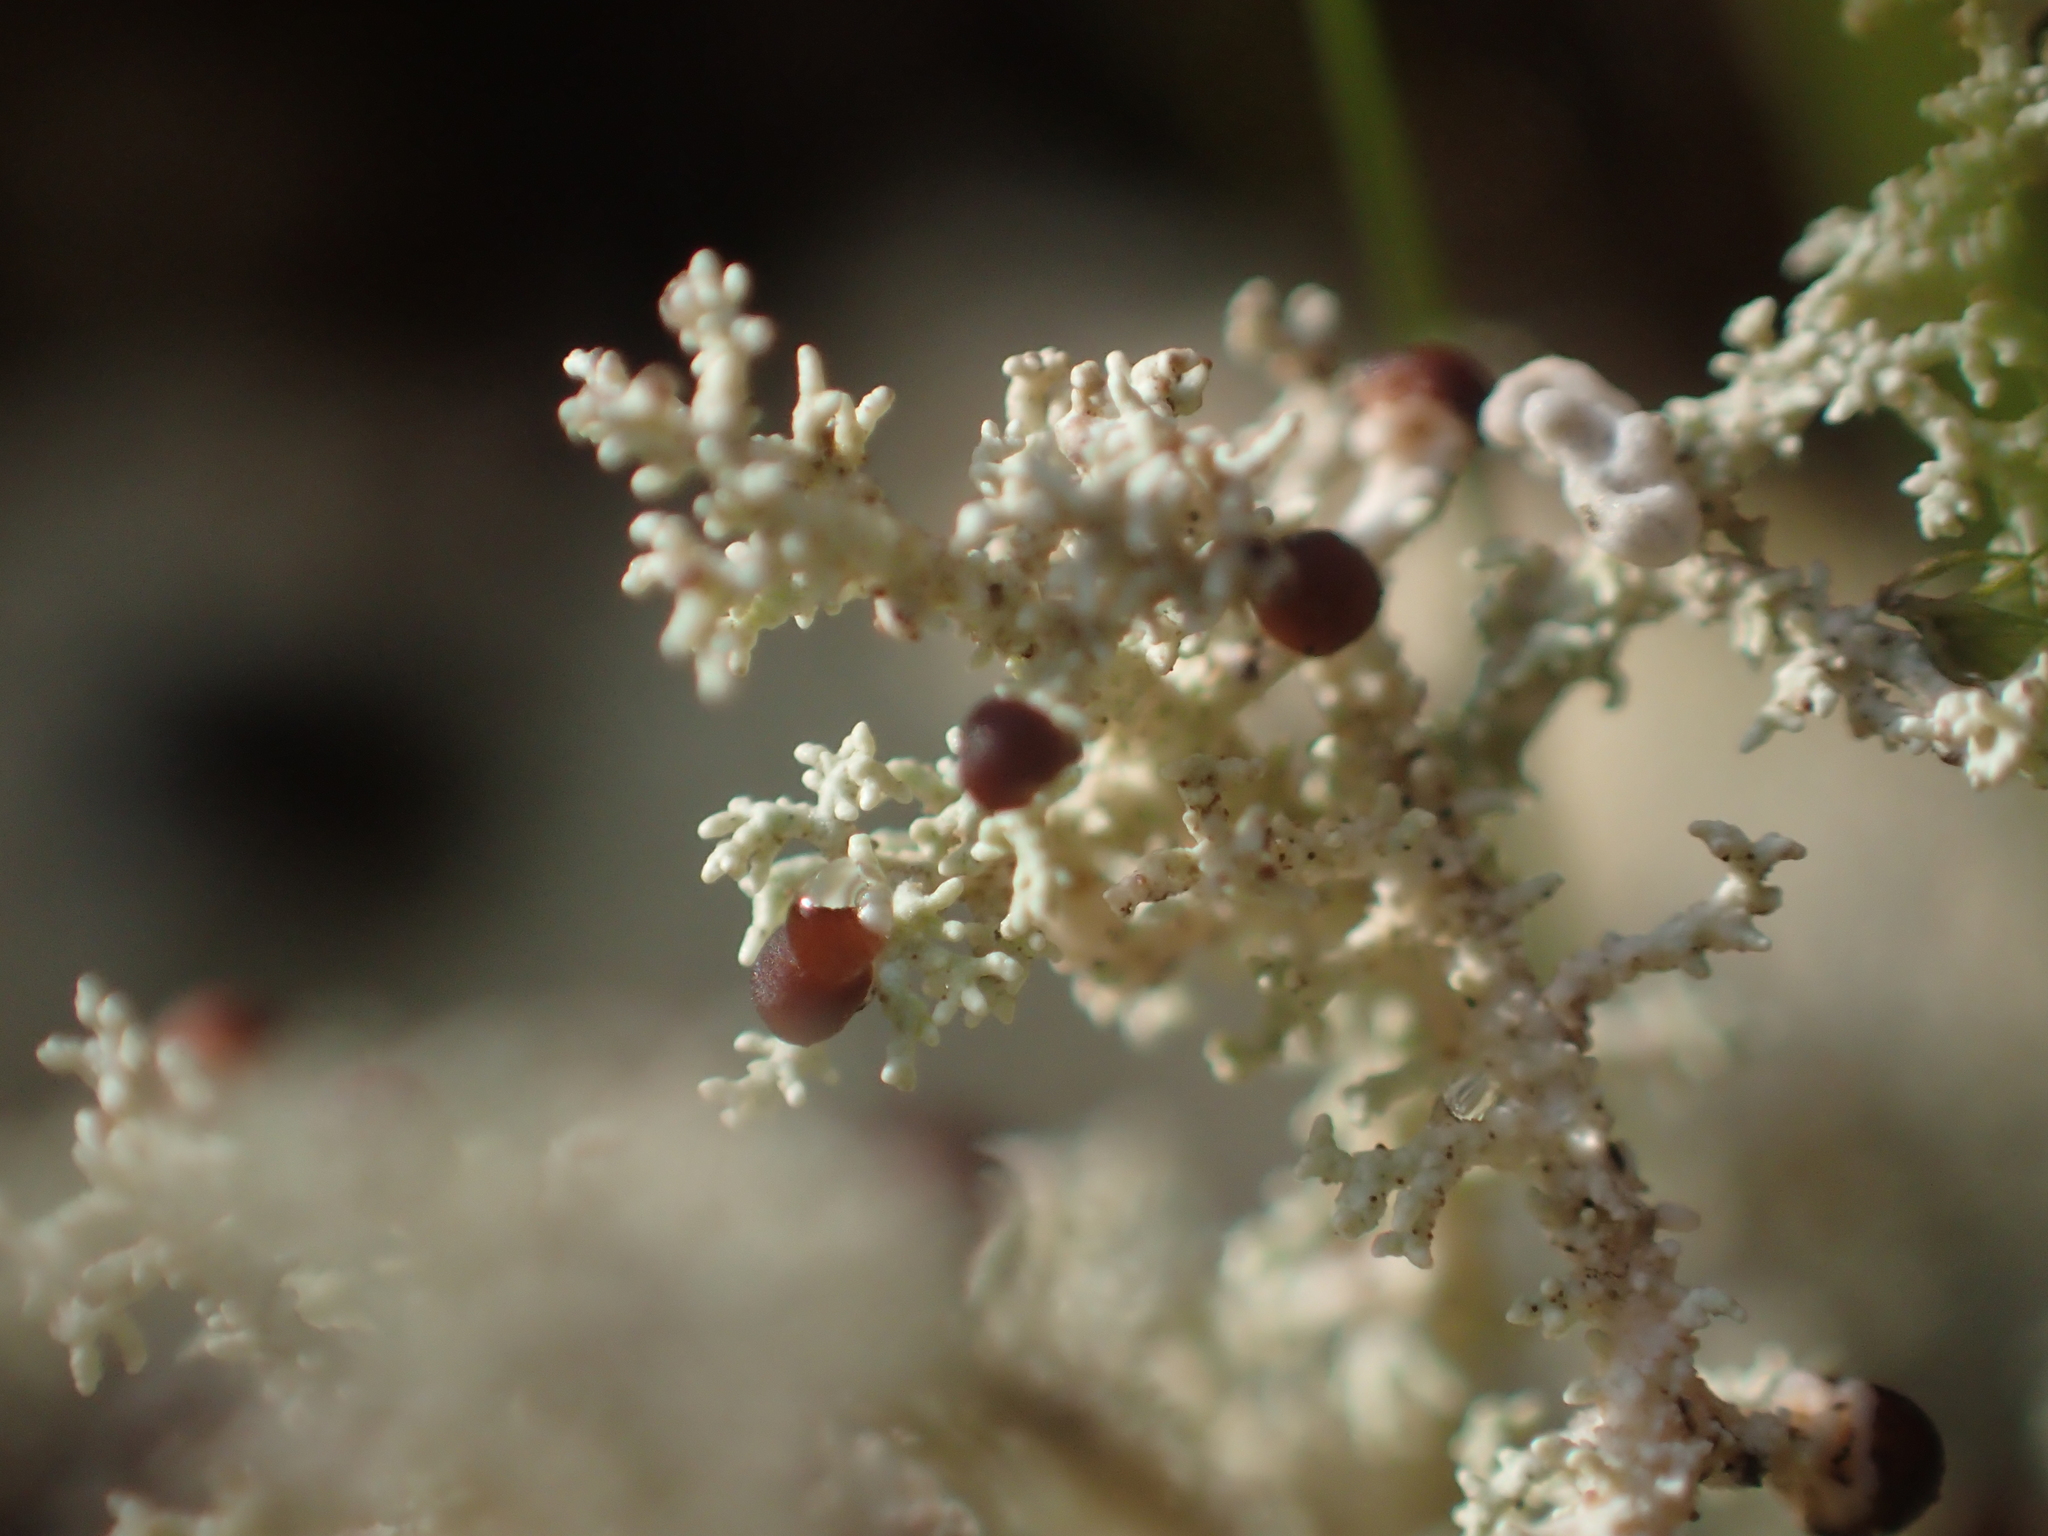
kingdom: Fungi
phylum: Ascomycota
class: Lecanoromycetes
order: Lecanorales
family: Stereocaulaceae
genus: Stereocaulon
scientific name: Stereocaulon ramulosum
